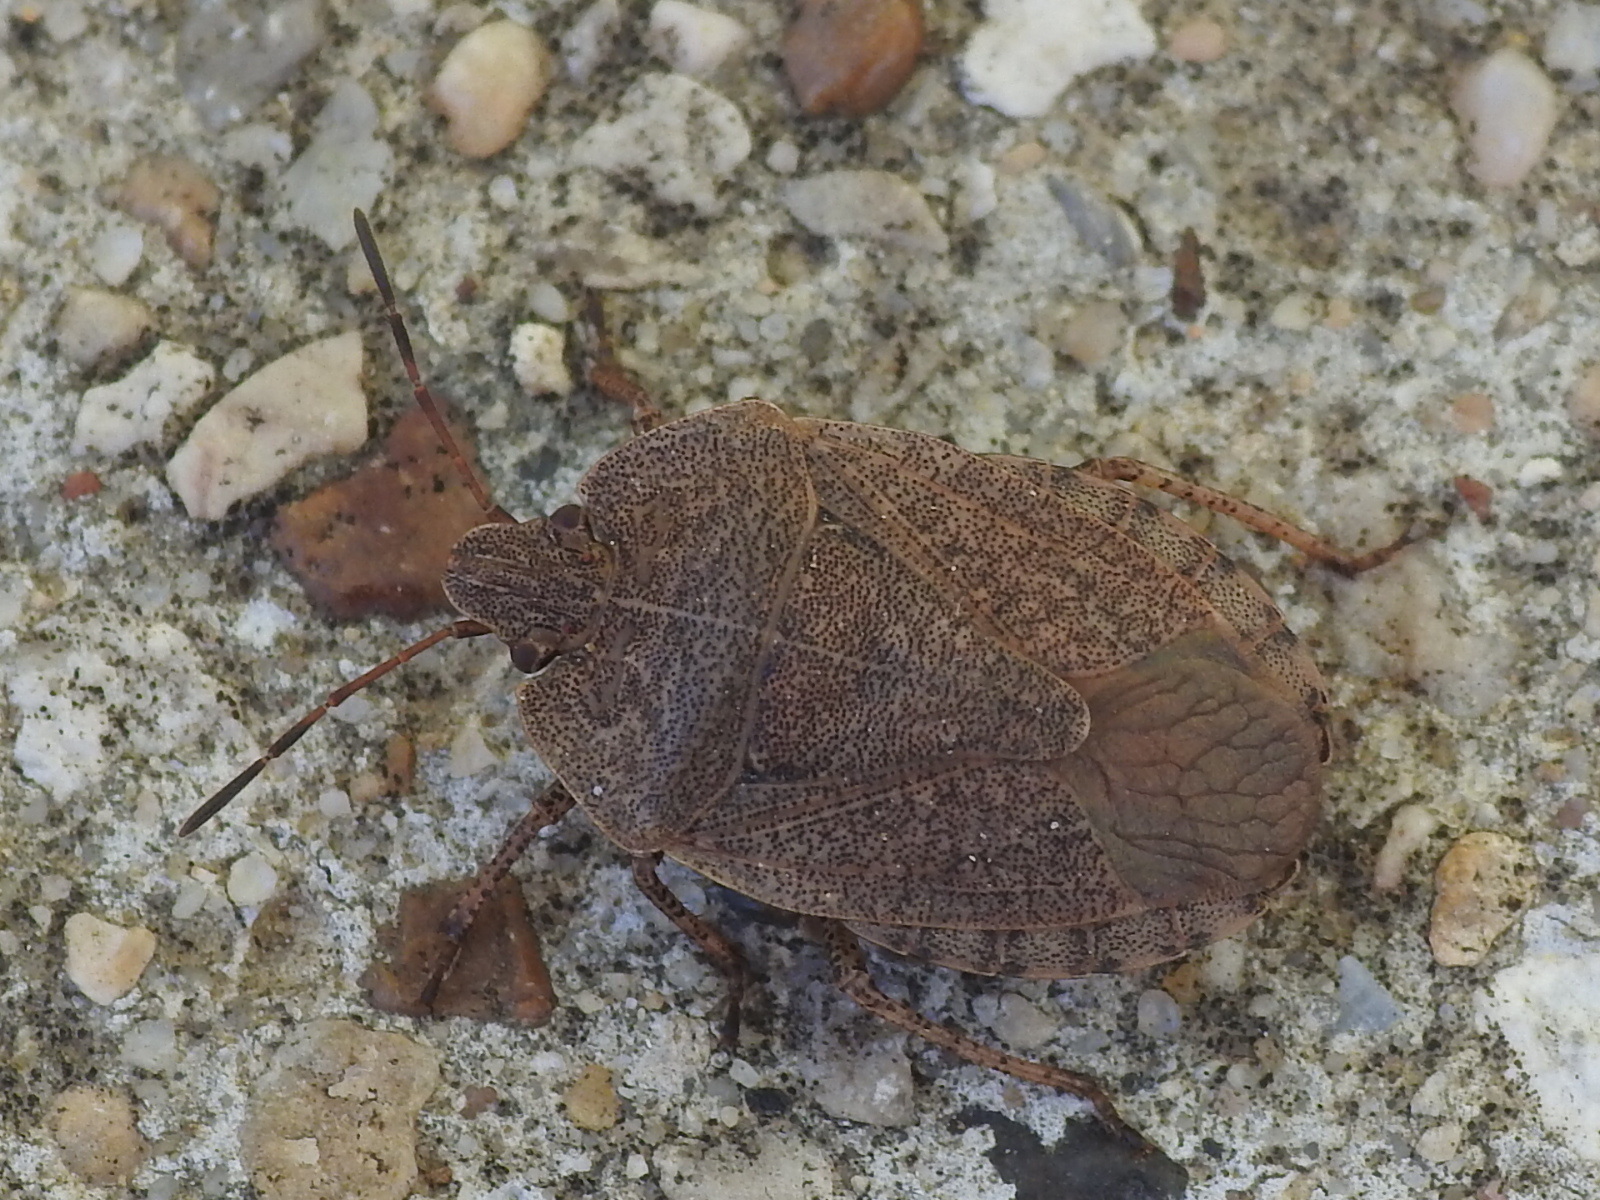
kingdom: Animalia
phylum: Arthropoda
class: Insecta
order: Hemiptera
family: Pentatomidae
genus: Menecles
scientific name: Menecles insertus
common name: Elf shoe stink bug
